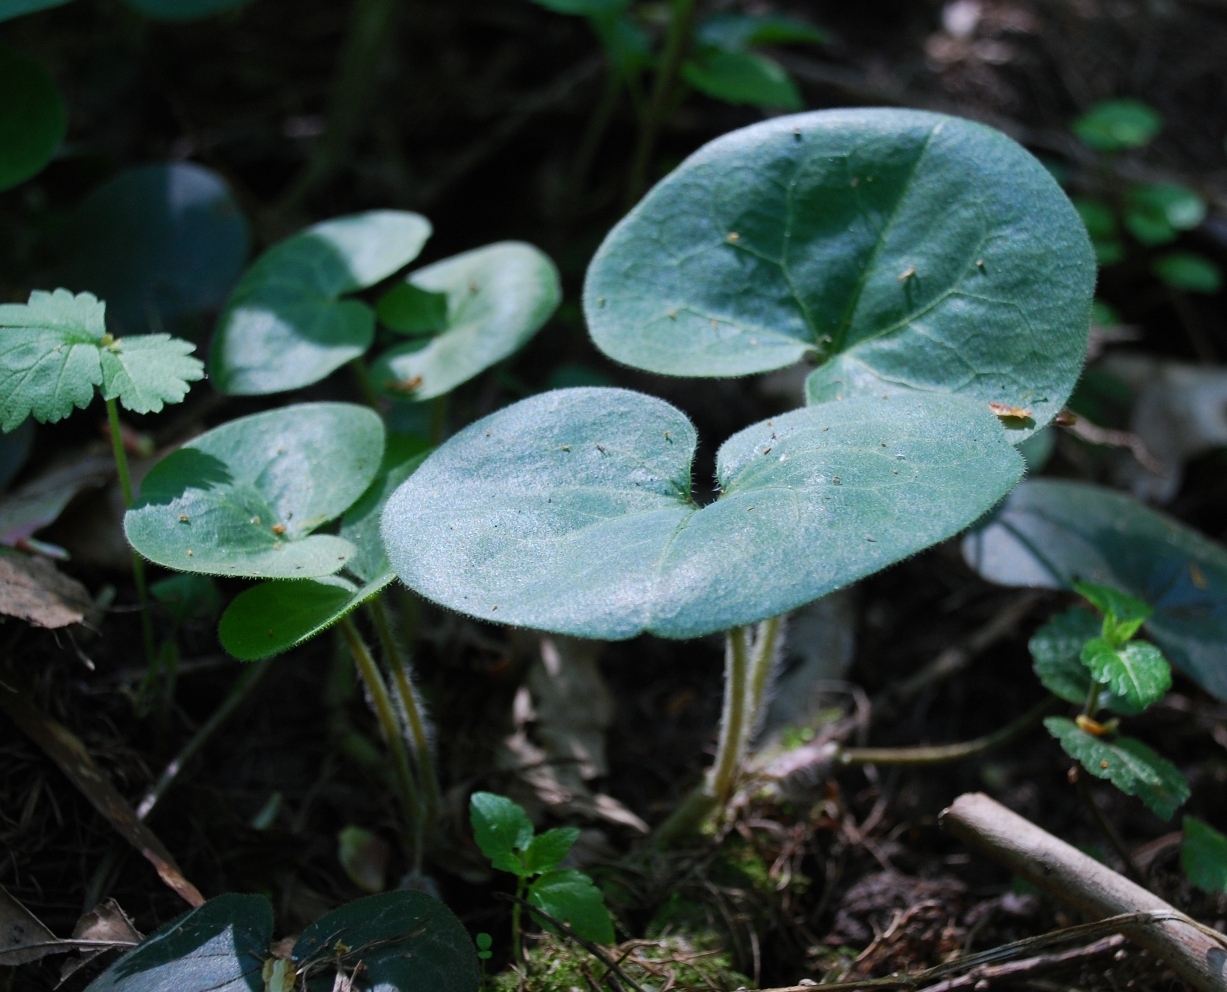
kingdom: Plantae
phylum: Tracheophyta
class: Magnoliopsida
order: Piperales
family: Aristolochiaceae
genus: Asarum
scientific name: Asarum europaeum
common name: Asarabacca
